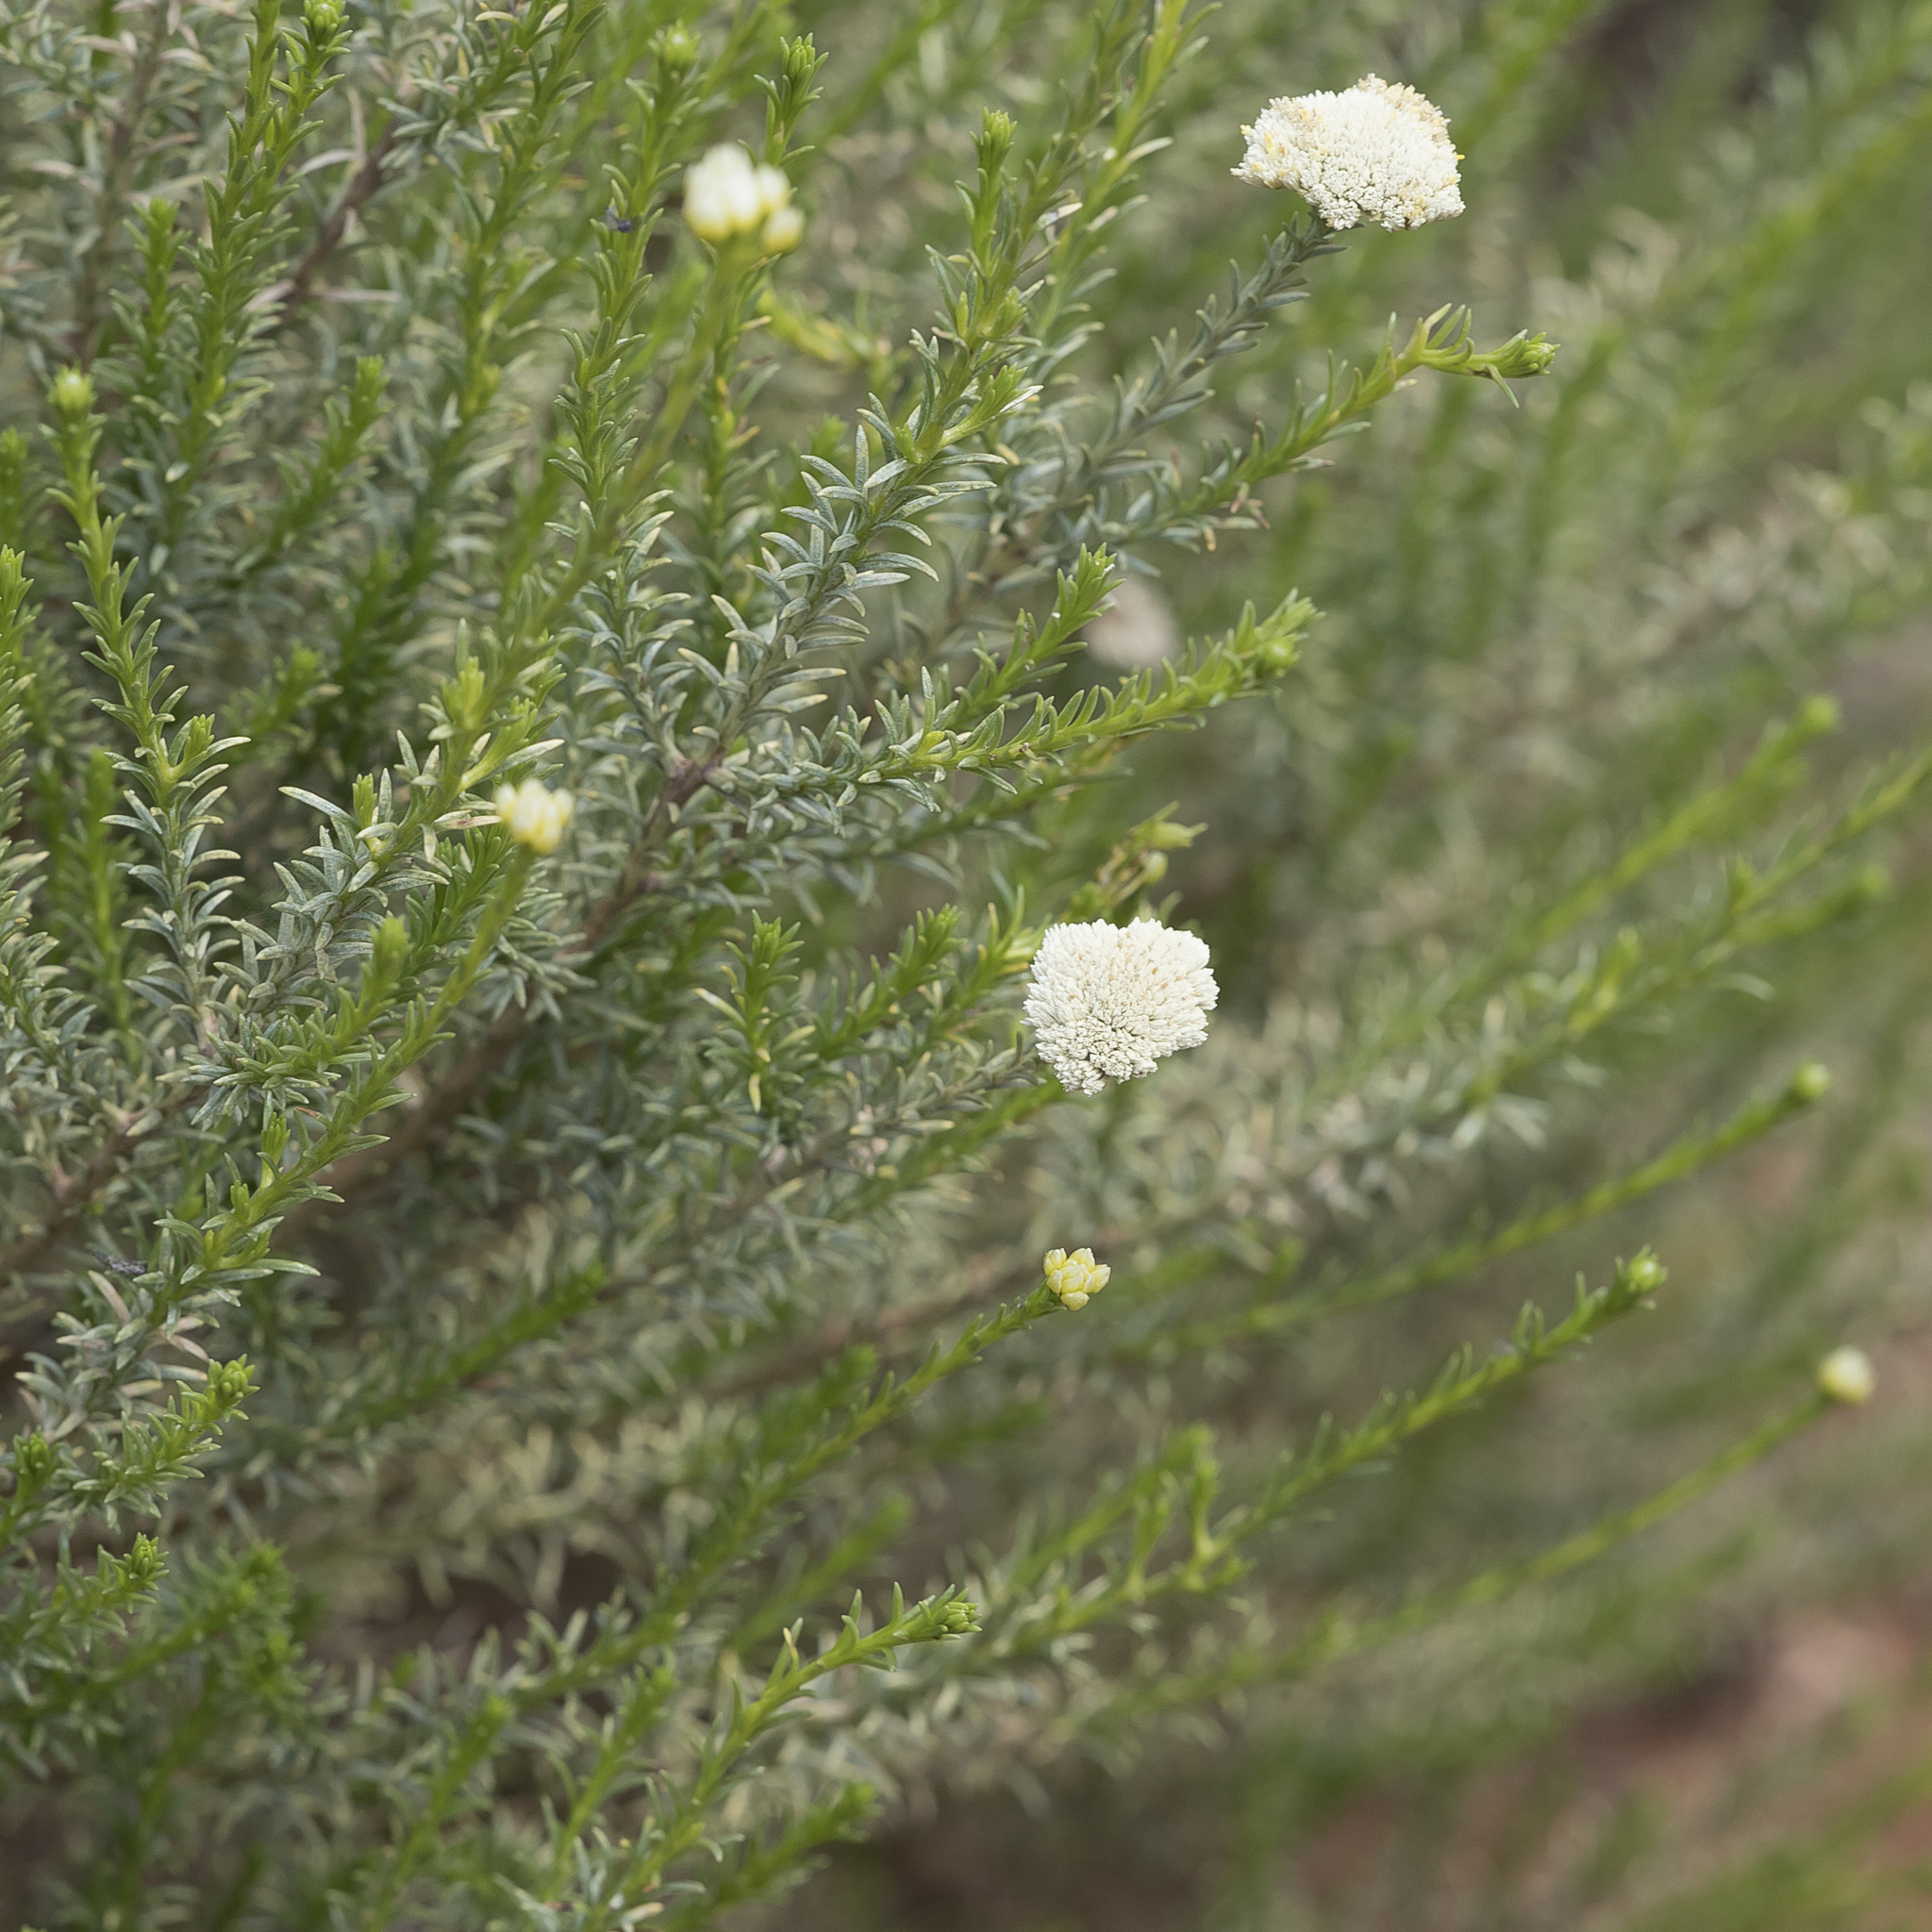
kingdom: Plantae
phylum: Tracheophyta
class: Magnoliopsida
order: Asterales
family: Asteraceae
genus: Haeckeria
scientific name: Haeckeria punctulata
